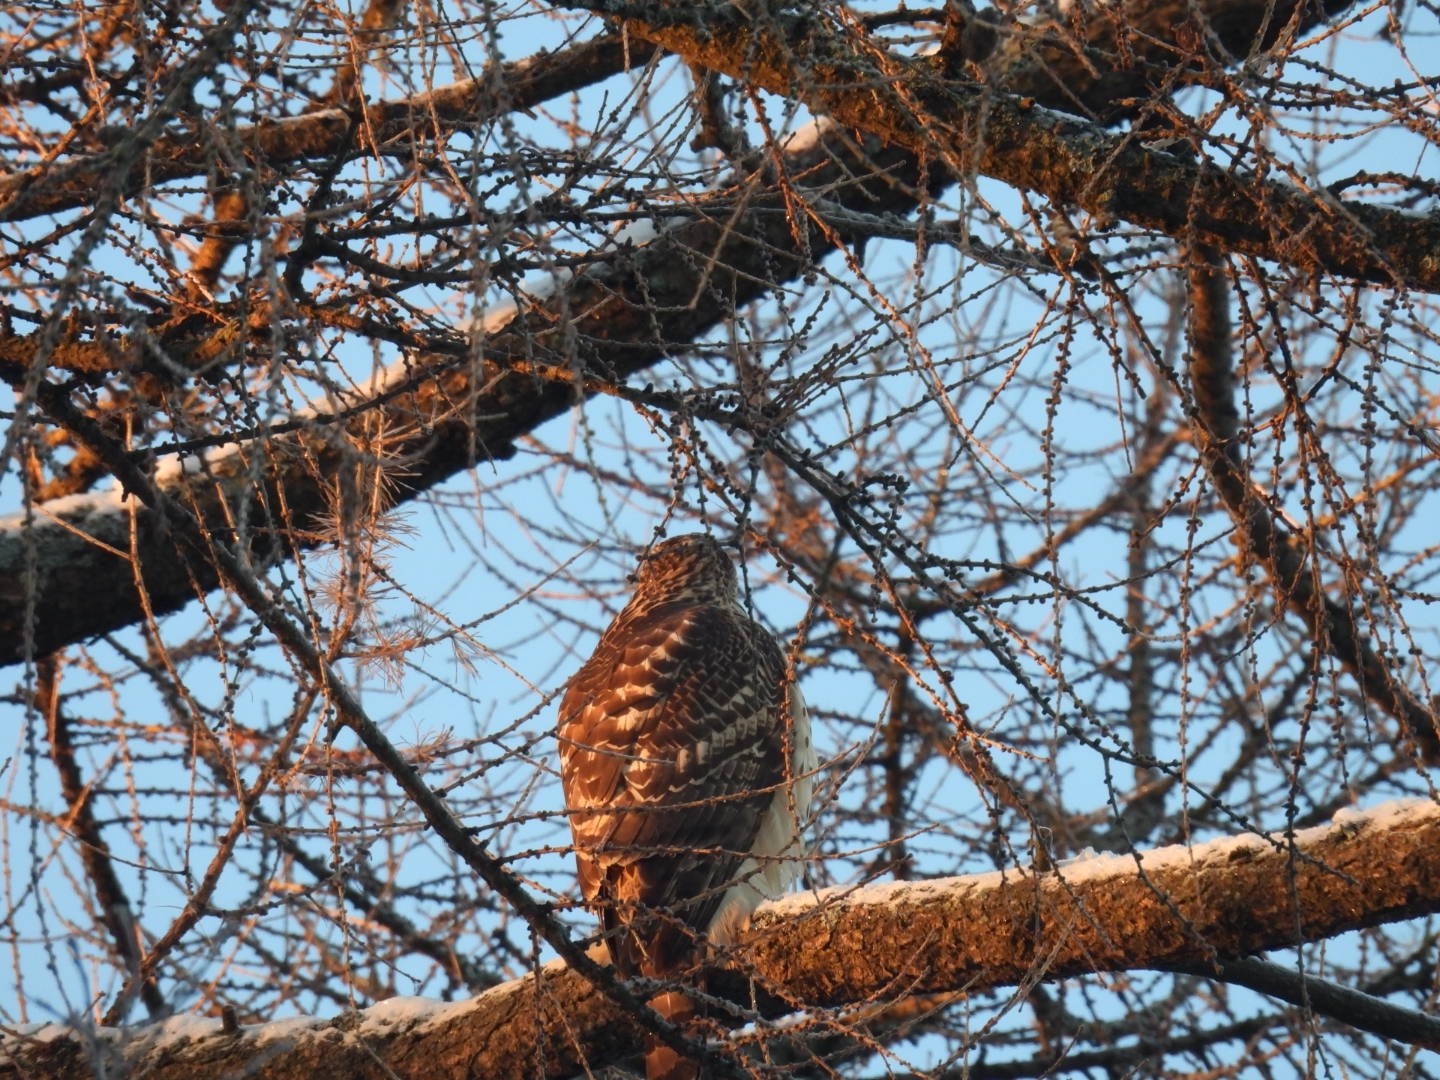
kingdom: Animalia
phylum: Chordata
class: Aves
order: Accipitriformes
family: Accipitridae
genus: Accipiter
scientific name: Accipiter gentilis
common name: Northern goshawk
